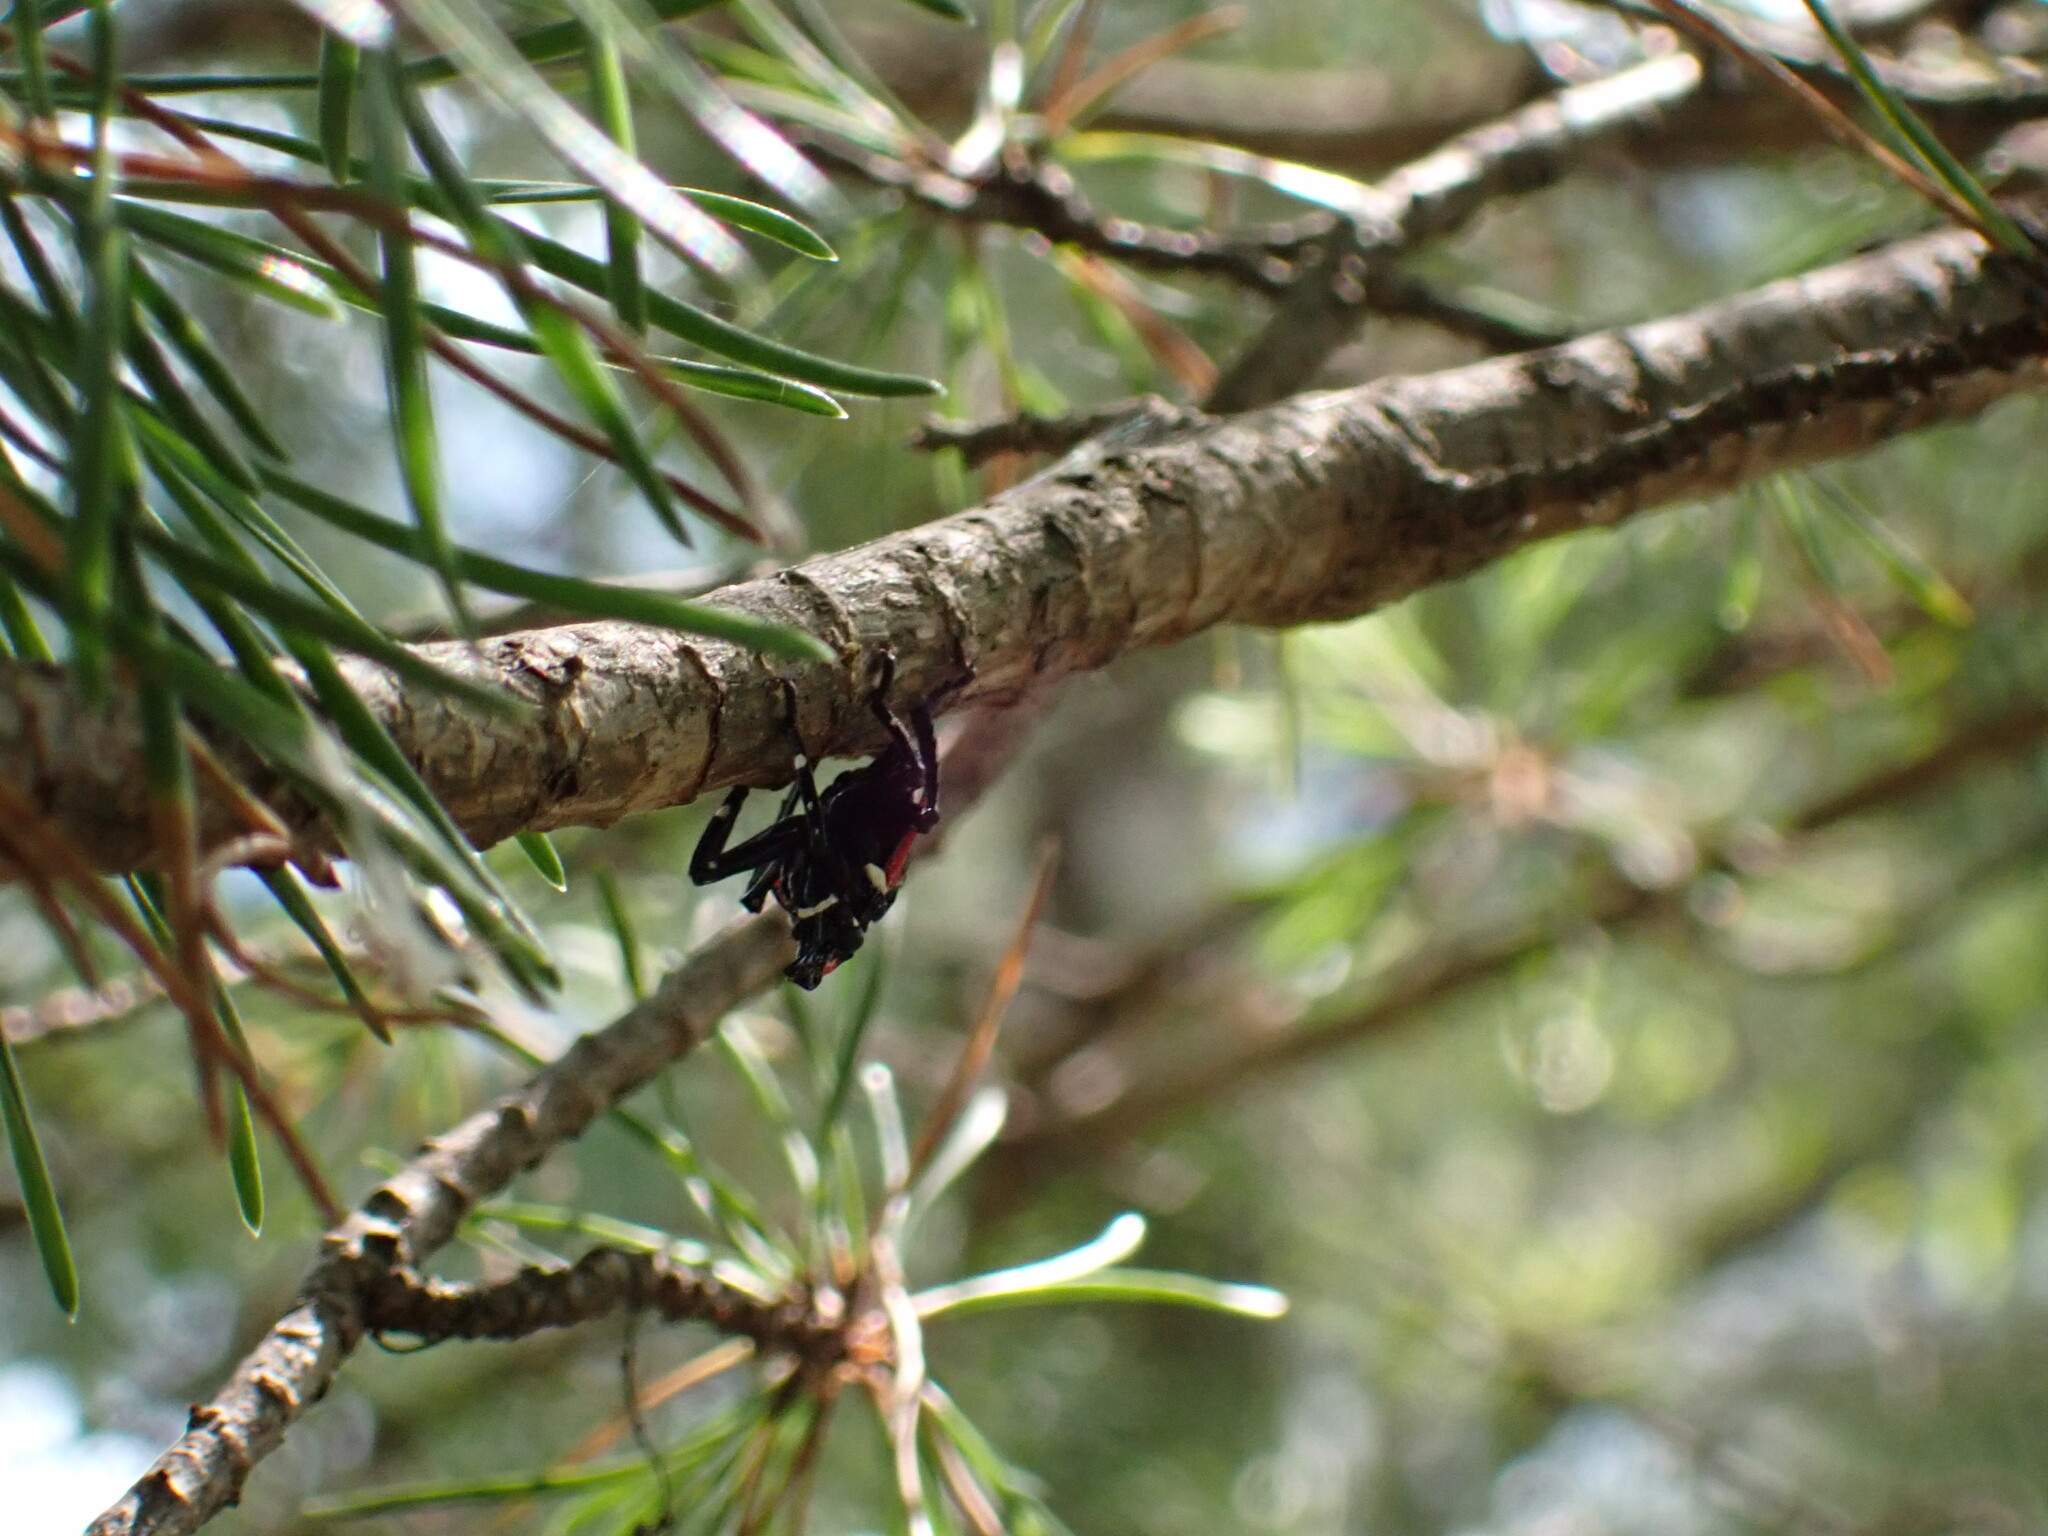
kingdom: Animalia
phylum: Arthropoda
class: Insecta
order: Hemiptera
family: Fulgoridae
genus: Lycorma
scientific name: Lycorma delicatula
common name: Spotted lanternfly
